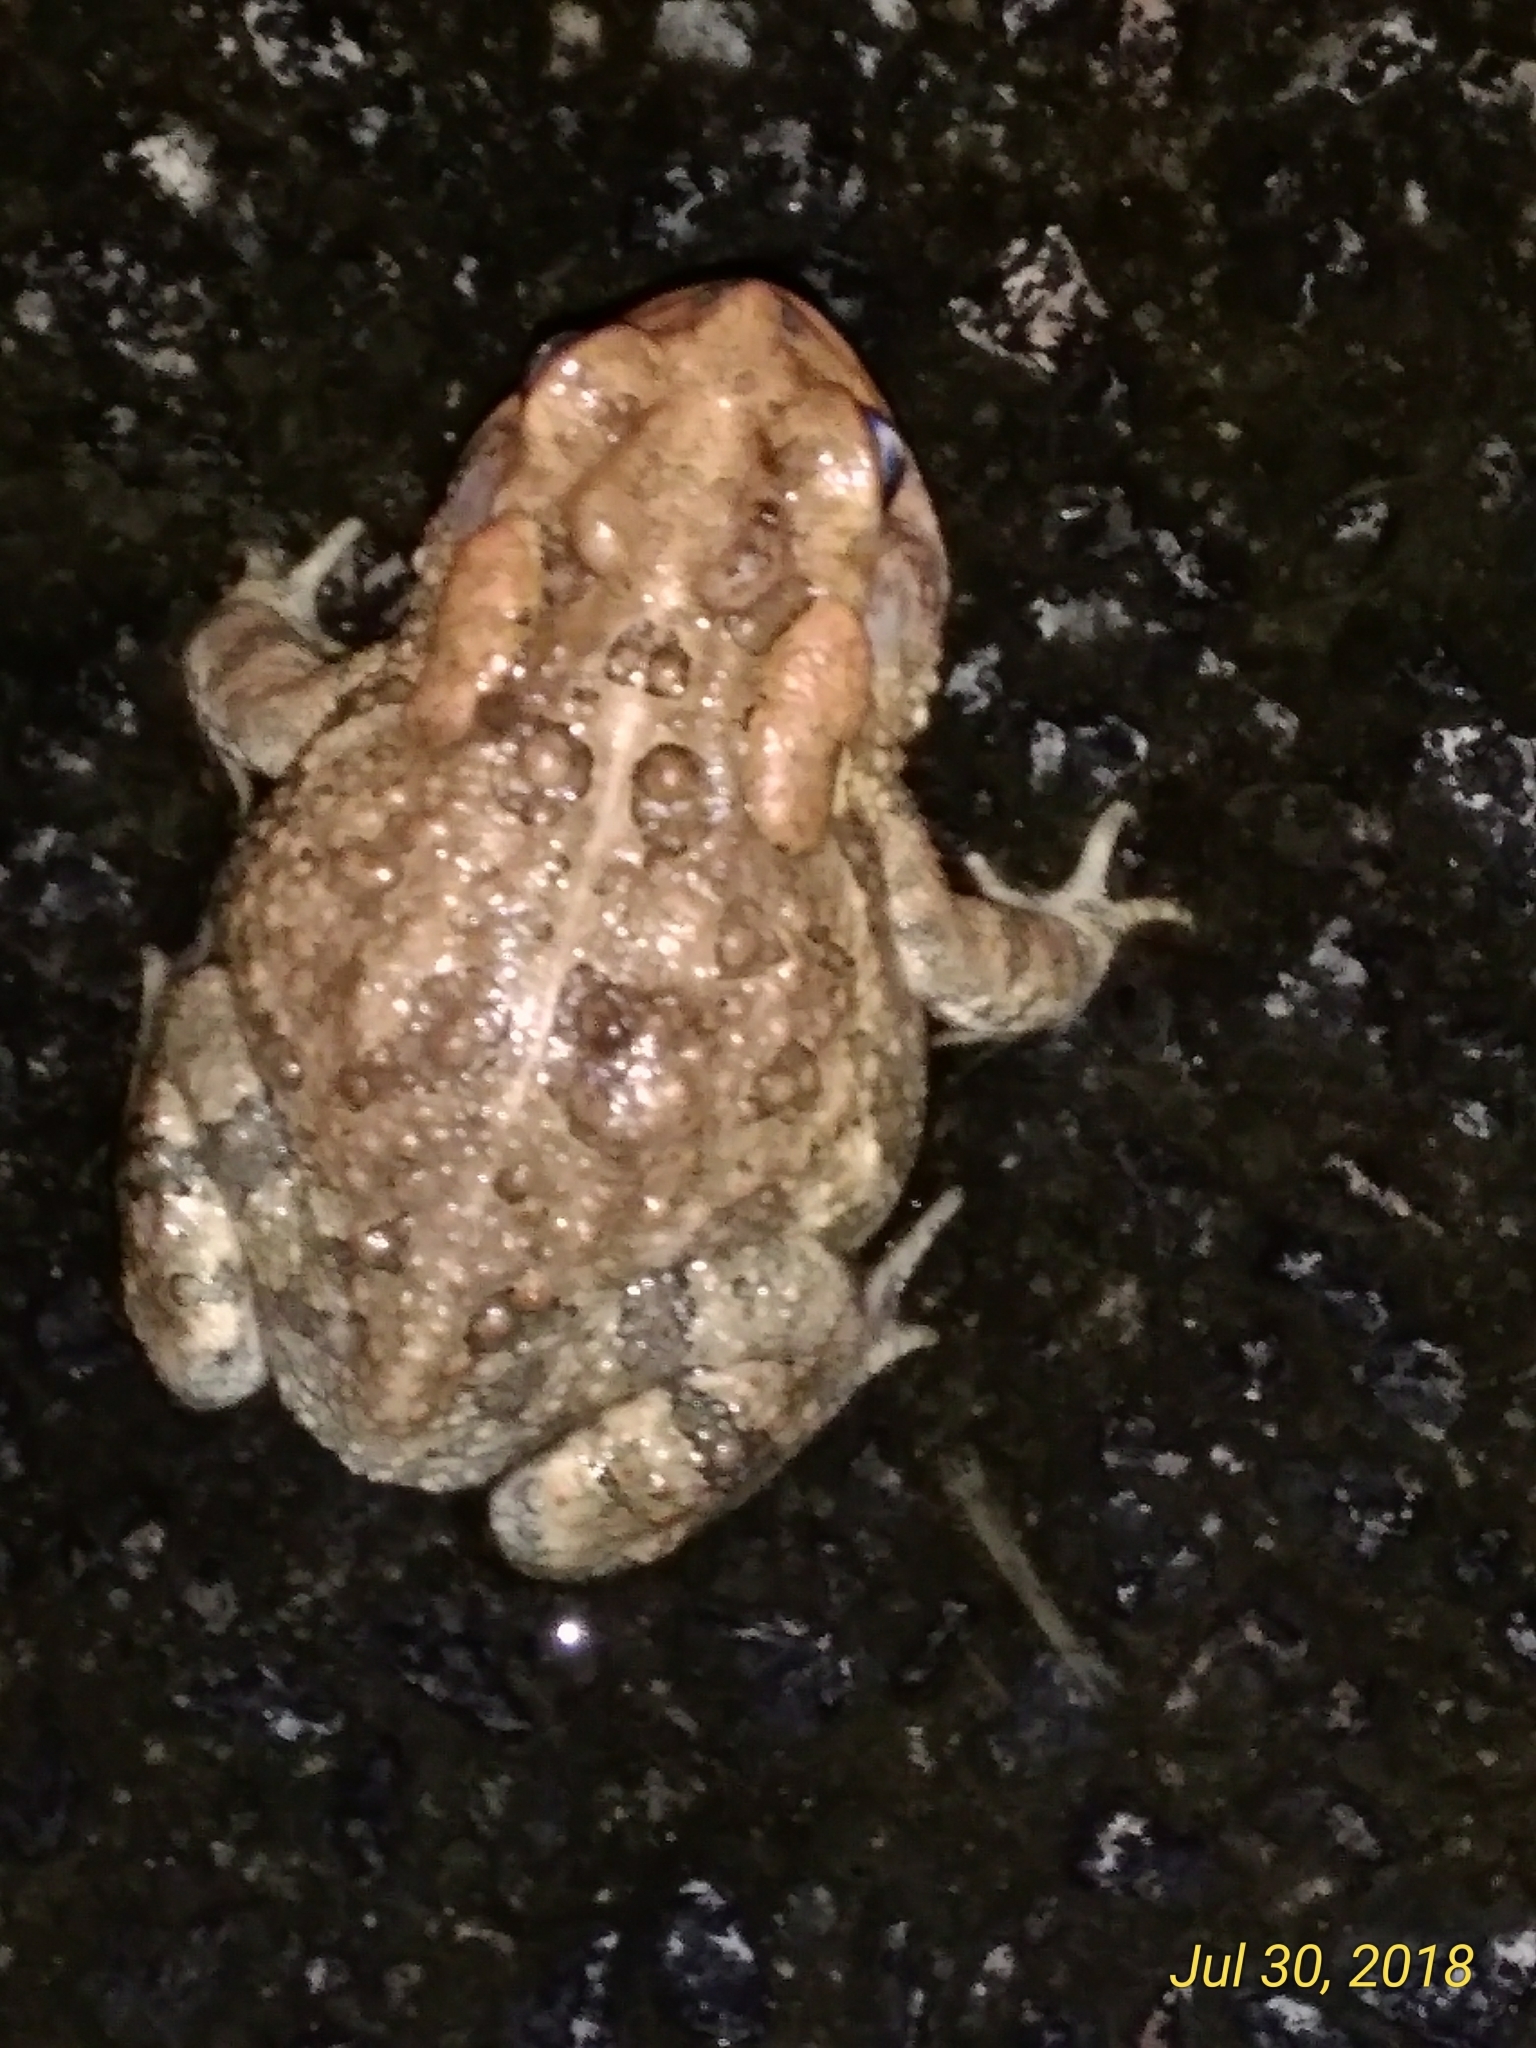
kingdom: Animalia
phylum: Chordata
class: Amphibia
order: Anura
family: Bufonidae
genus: Anaxyrus
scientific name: Anaxyrus terrestris
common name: Southern toad
